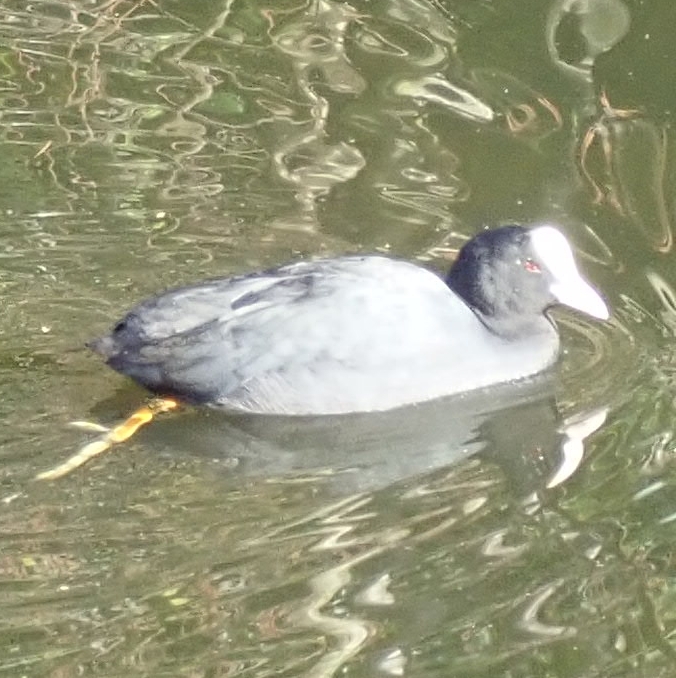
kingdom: Animalia
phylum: Chordata
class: Aves
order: Gruiformes
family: Rallidae
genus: Fulica
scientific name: Fulica atra
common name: Eurasian coot
